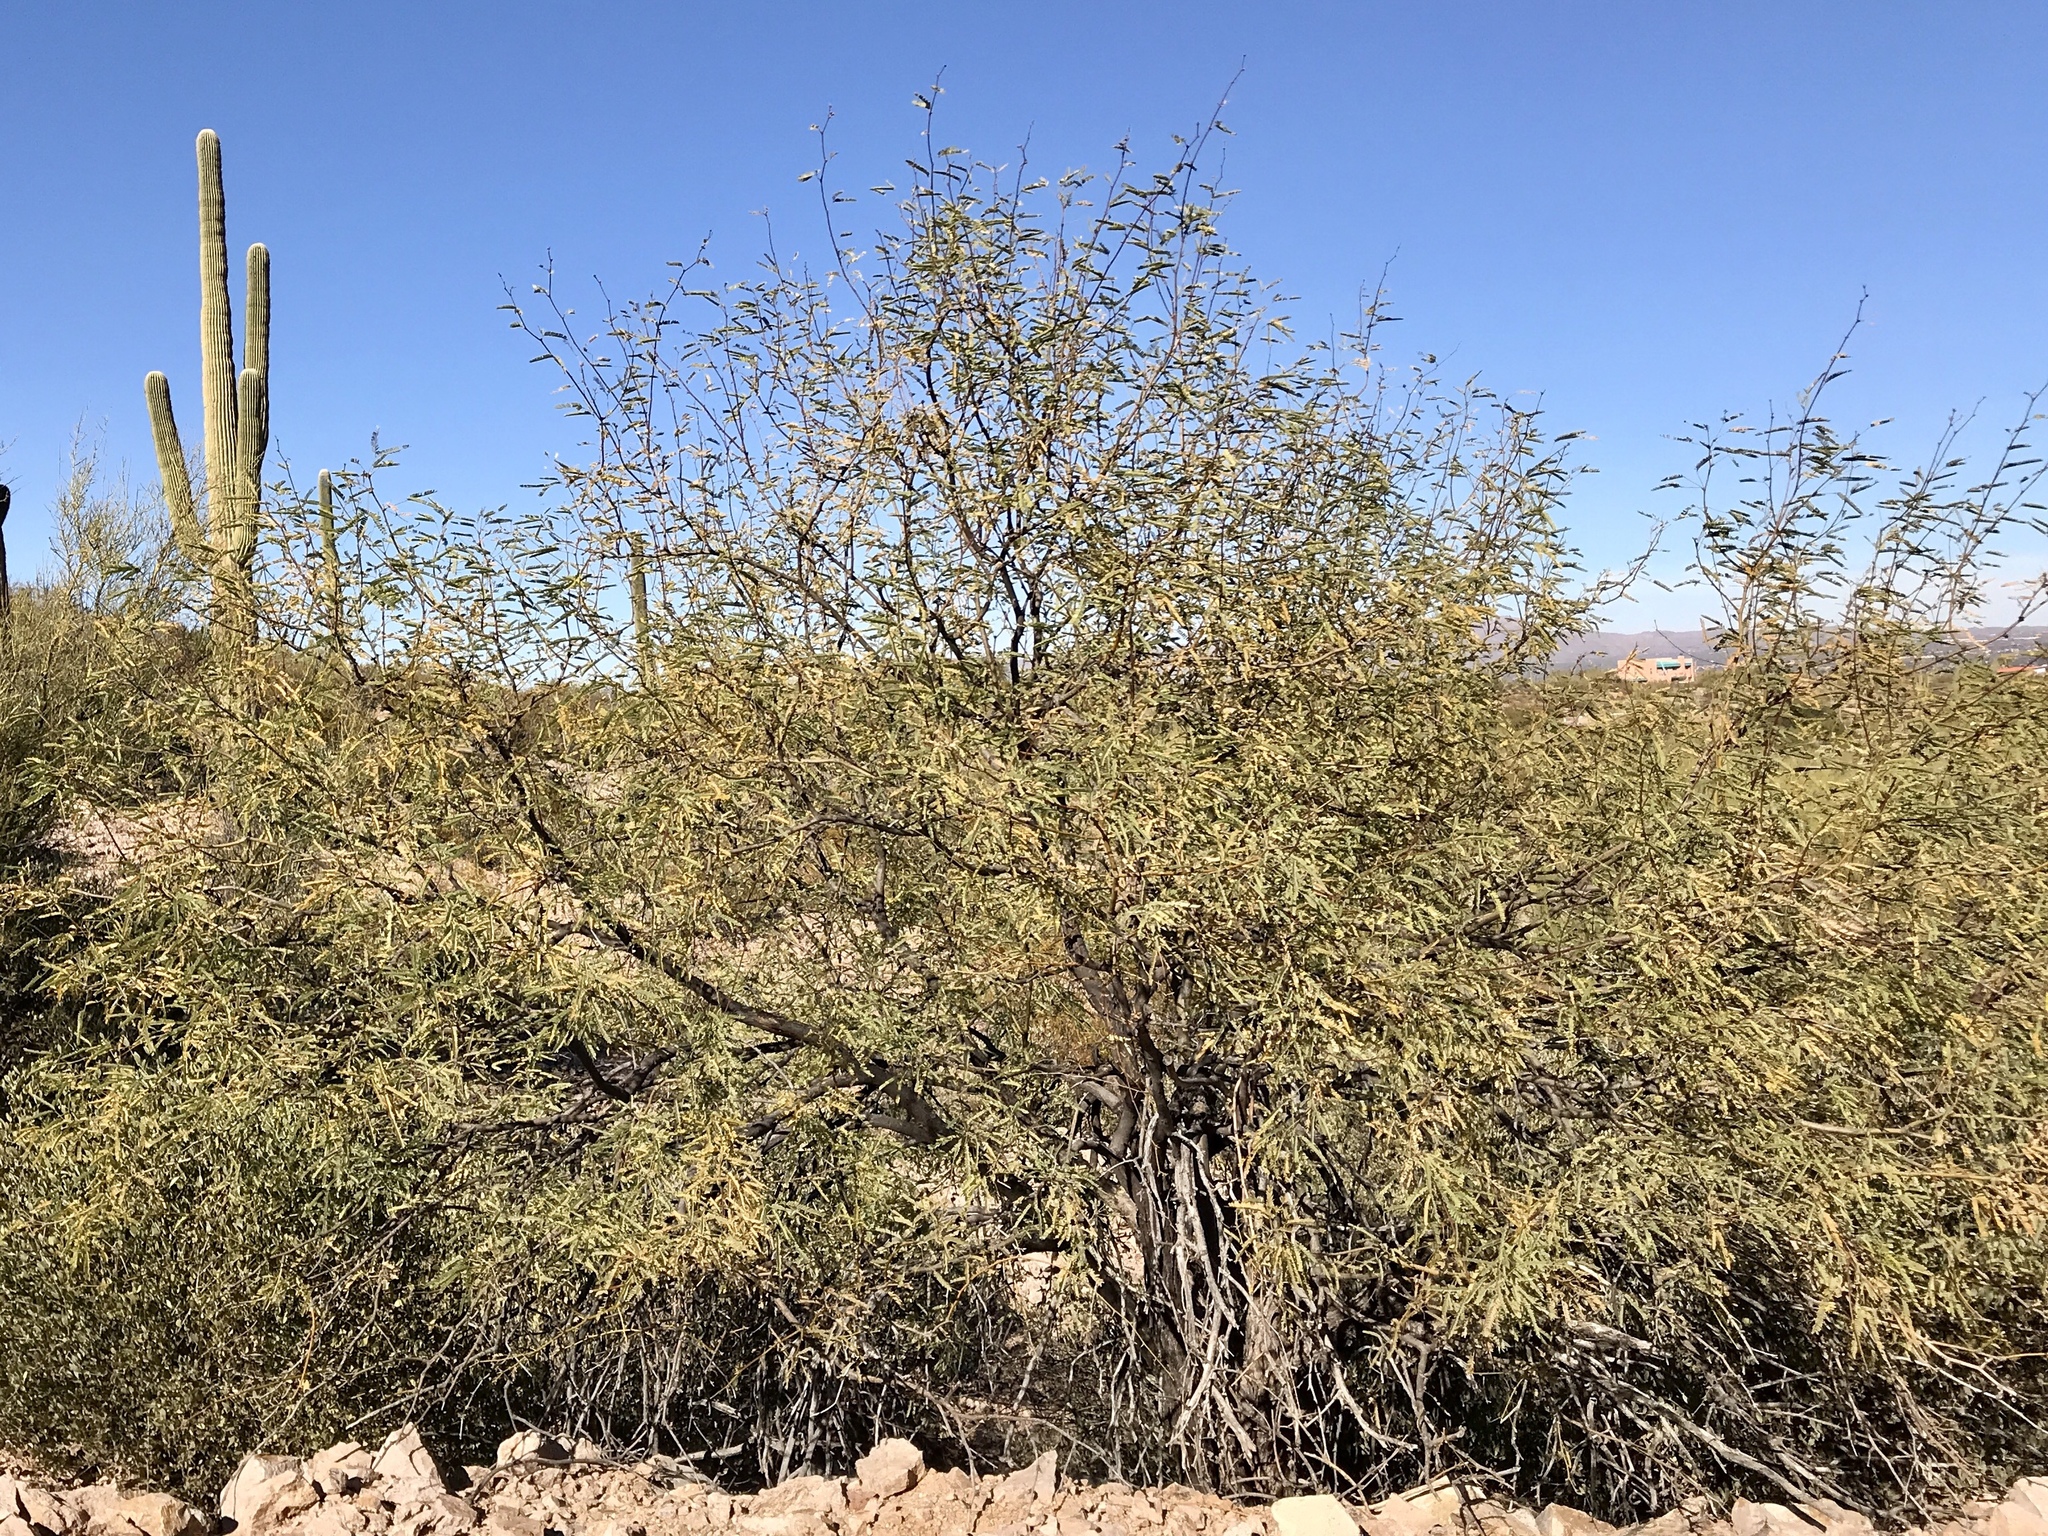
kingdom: Plantae
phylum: Tracheophyta
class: Magnoliopsida
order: Fabales
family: Fabaceae
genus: Prosopis
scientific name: Prosopis velutina
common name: Velvet mesquite
